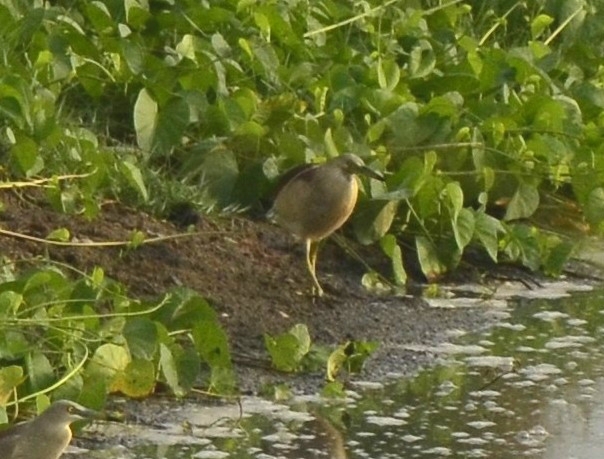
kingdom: Animalia
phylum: Chordata
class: Aves
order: Pelecaniformes
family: Ardeidae
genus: Ardeola
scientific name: Ardeola grayii
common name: Indian pond heron
